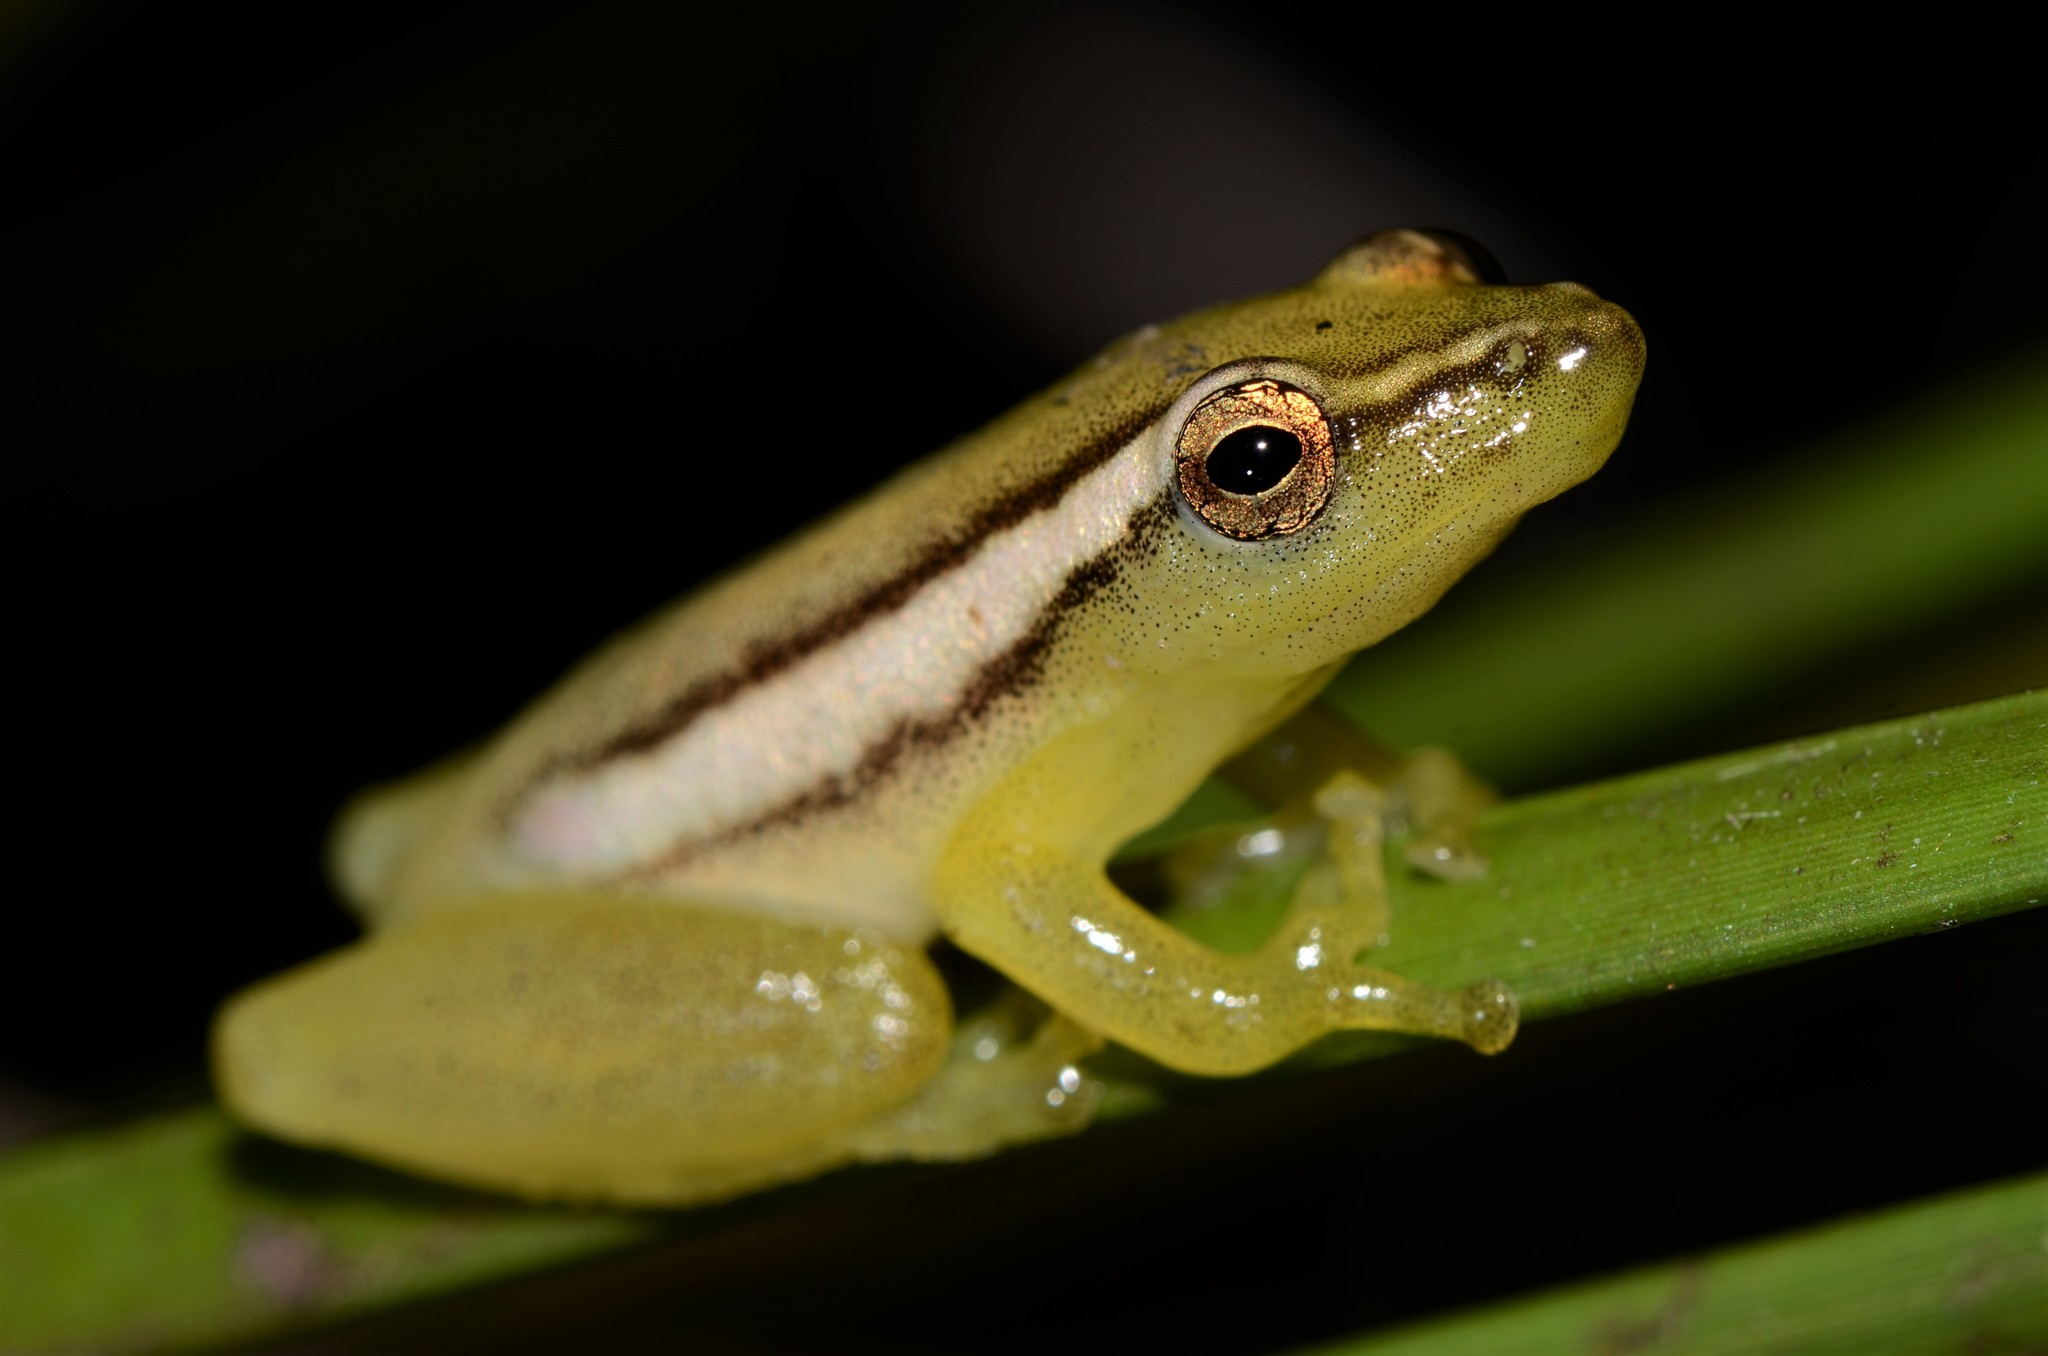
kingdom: Animalia
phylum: Chordata
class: Amphibia
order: Anura
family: Hyperoliidae
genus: Hyperolius
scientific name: Hyperolius parkeri
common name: Brown-or-green sedge frog
